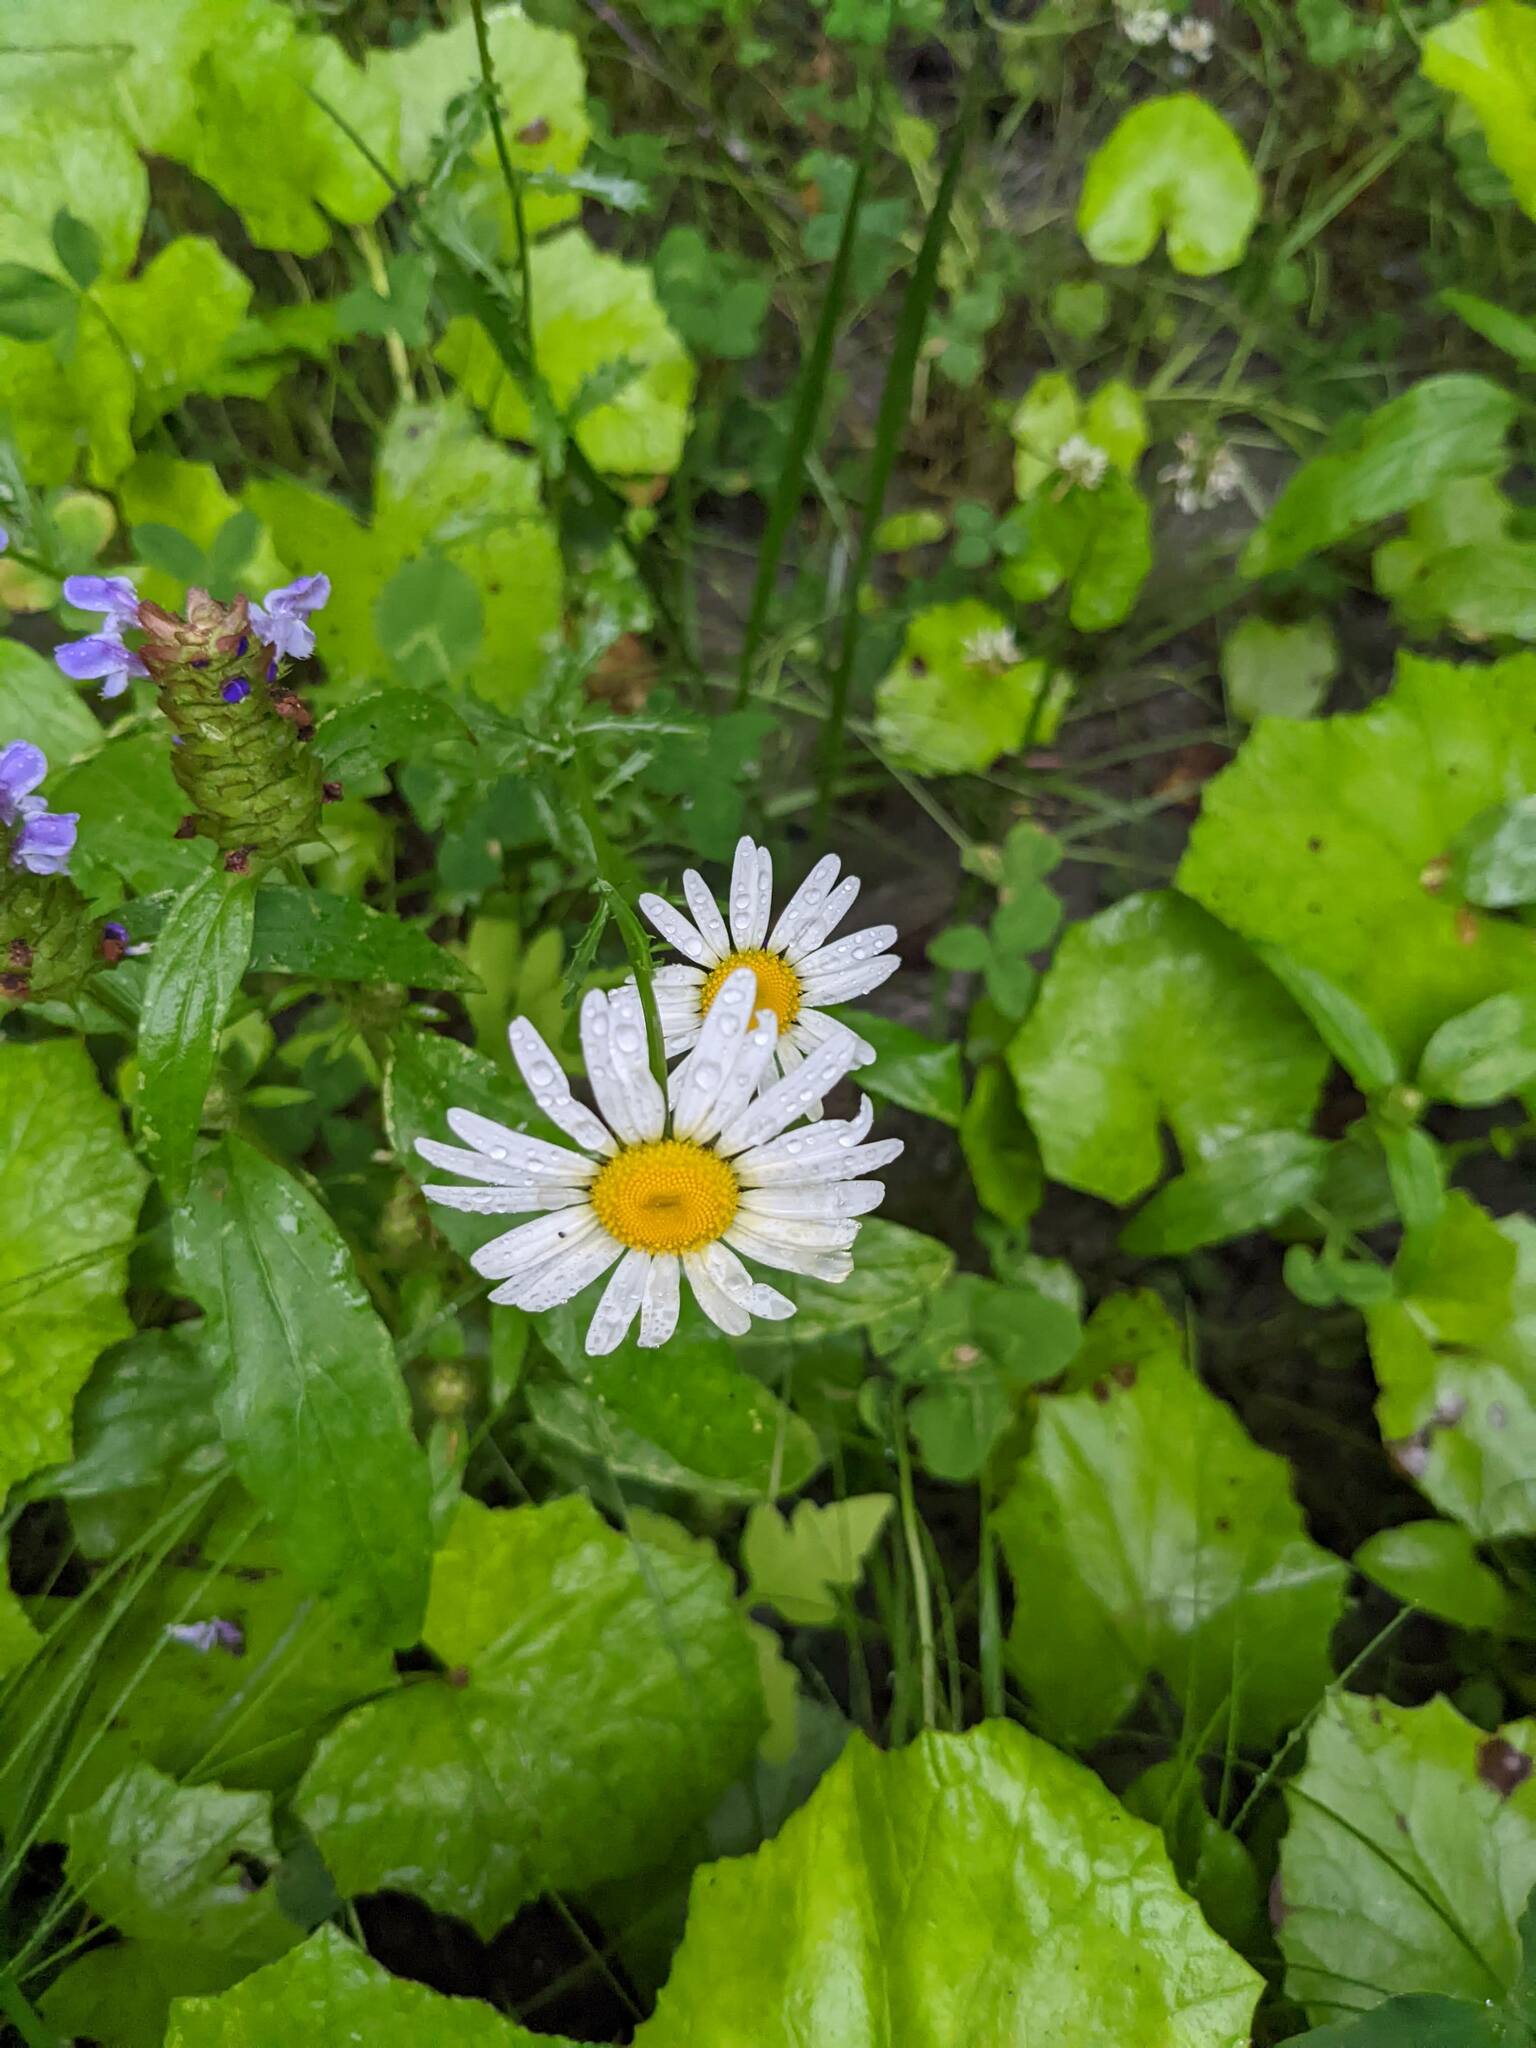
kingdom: Plantae
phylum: Tracheophyta
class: Magnoliopsida
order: Asterales
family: Asteraceae
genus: Leucanthemum
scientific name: Leucanthemum vulgare
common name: Oxeye daisy
